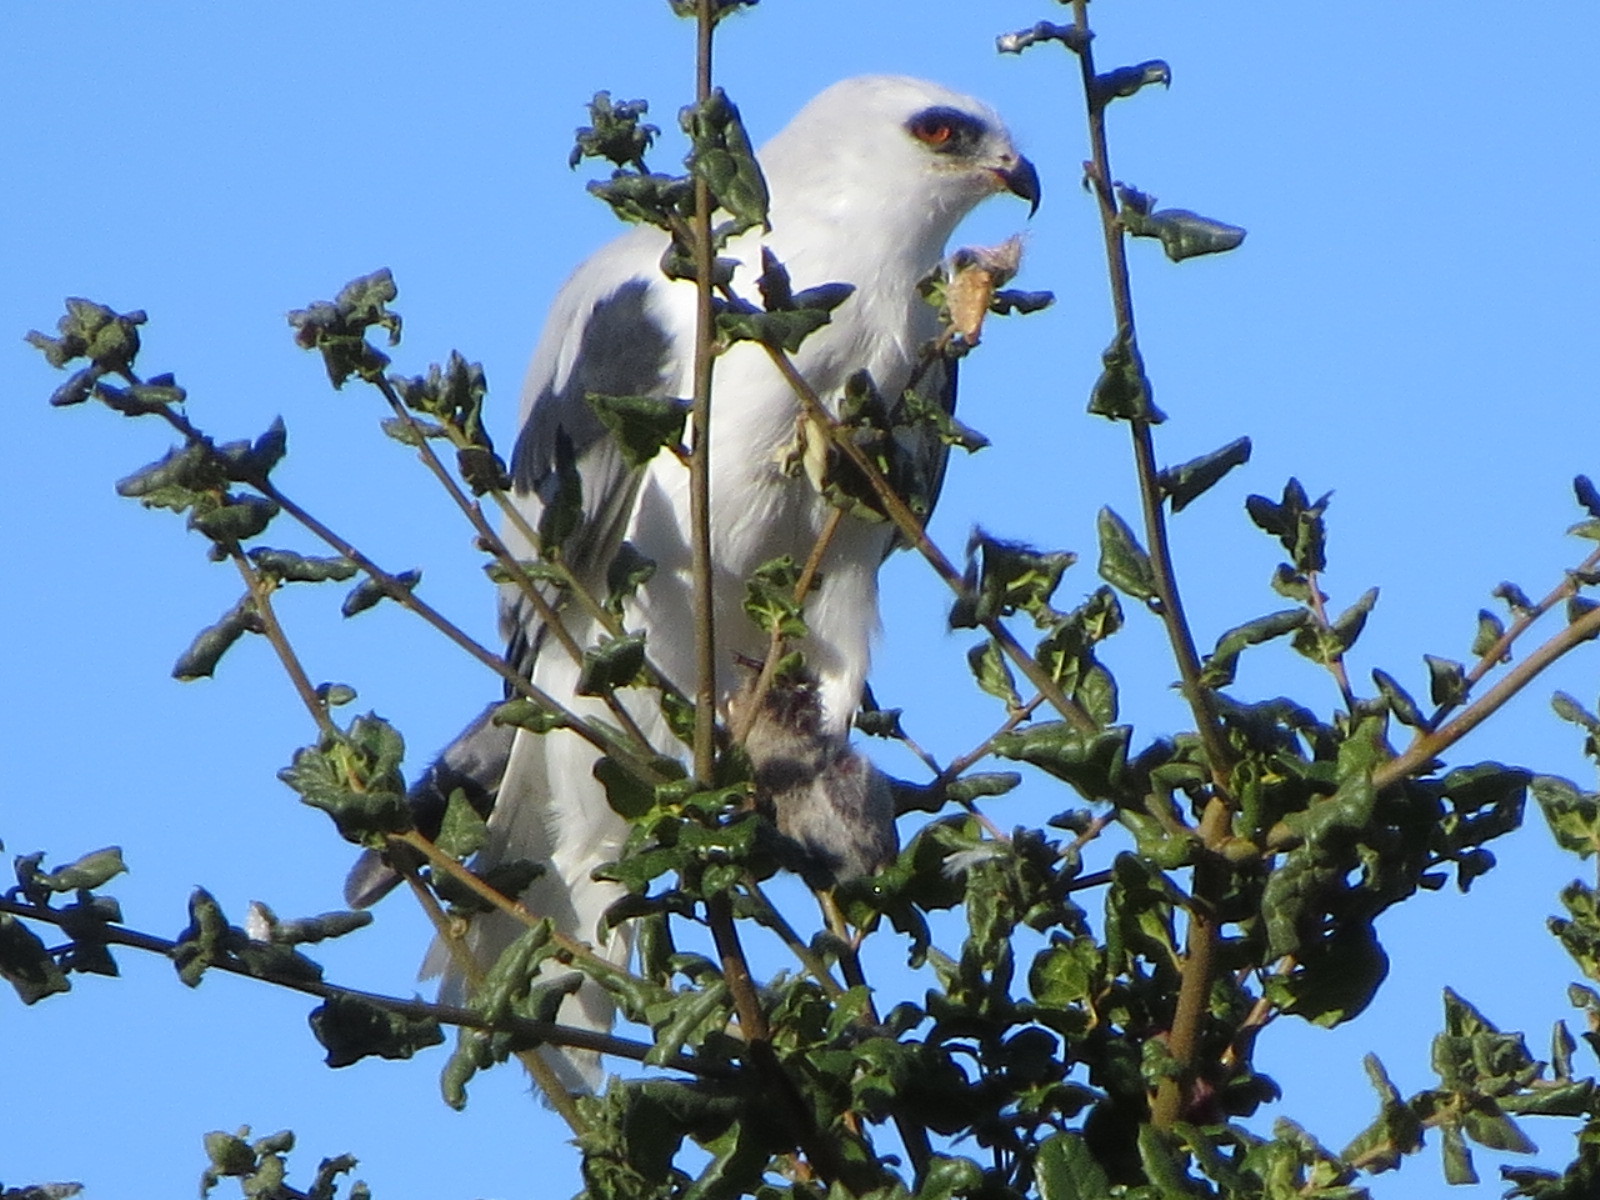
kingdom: Animalia
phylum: Chordata
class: Aves
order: Accipitriformes
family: Accipitridae
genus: Elanus
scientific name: Elanus leucurus
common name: White-tailed kite
